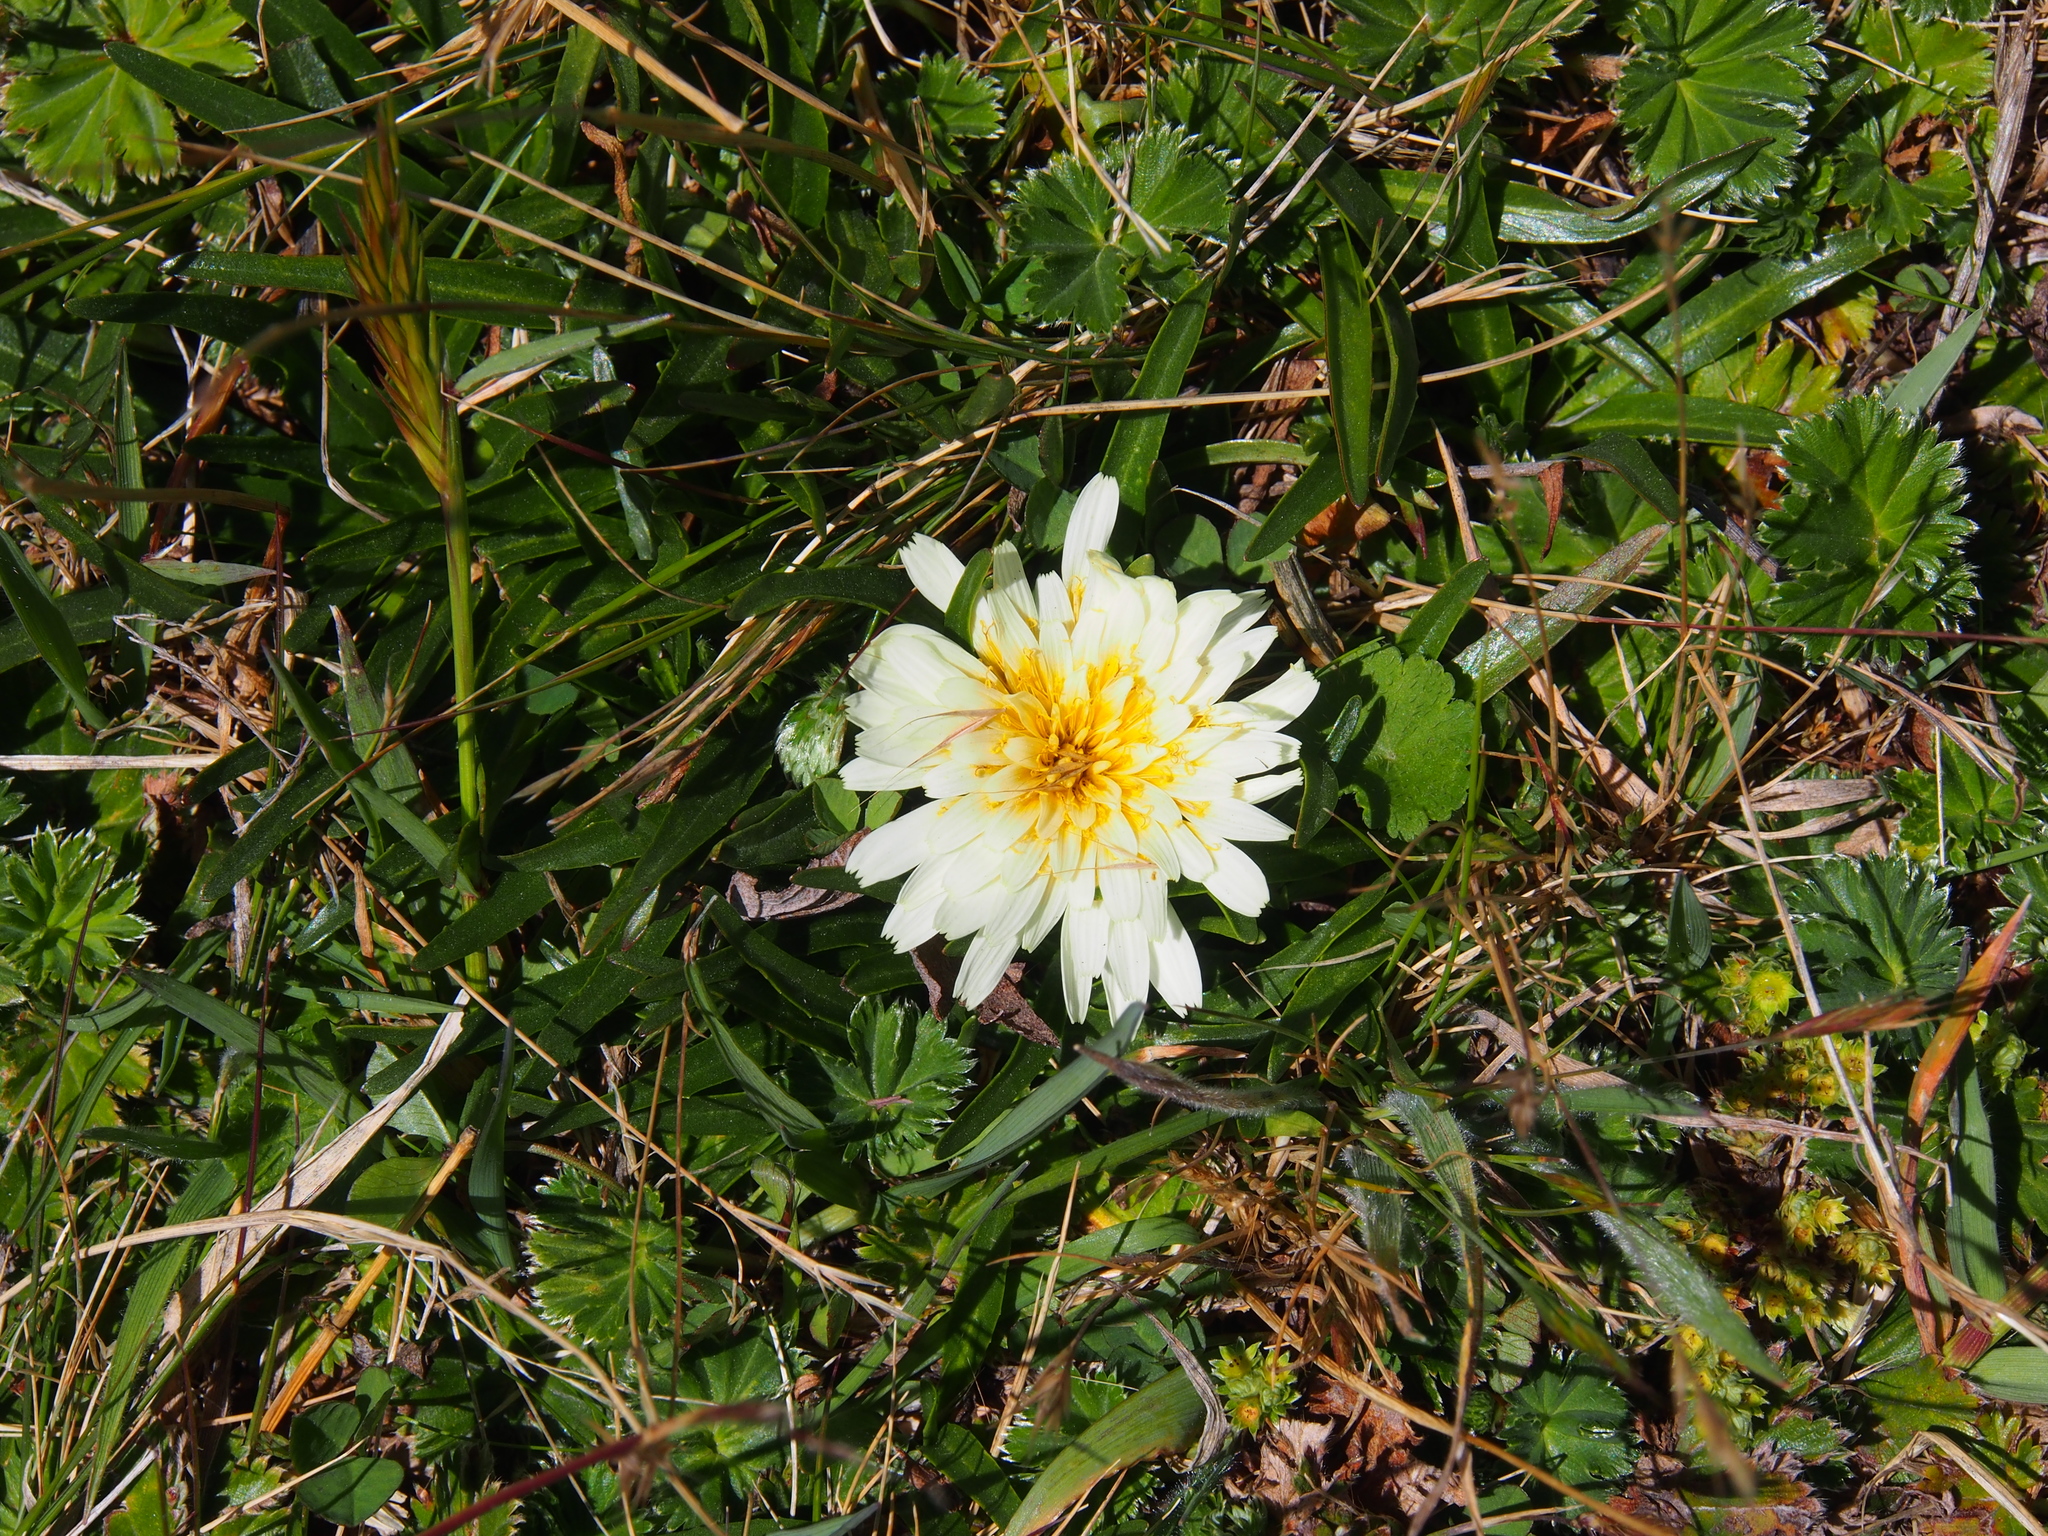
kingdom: Plantae
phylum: Tracheophyta
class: Magnoliopsida
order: Asterales
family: Asteraceae
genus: Hypochaeris
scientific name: Hypochaeris sessiliflora
